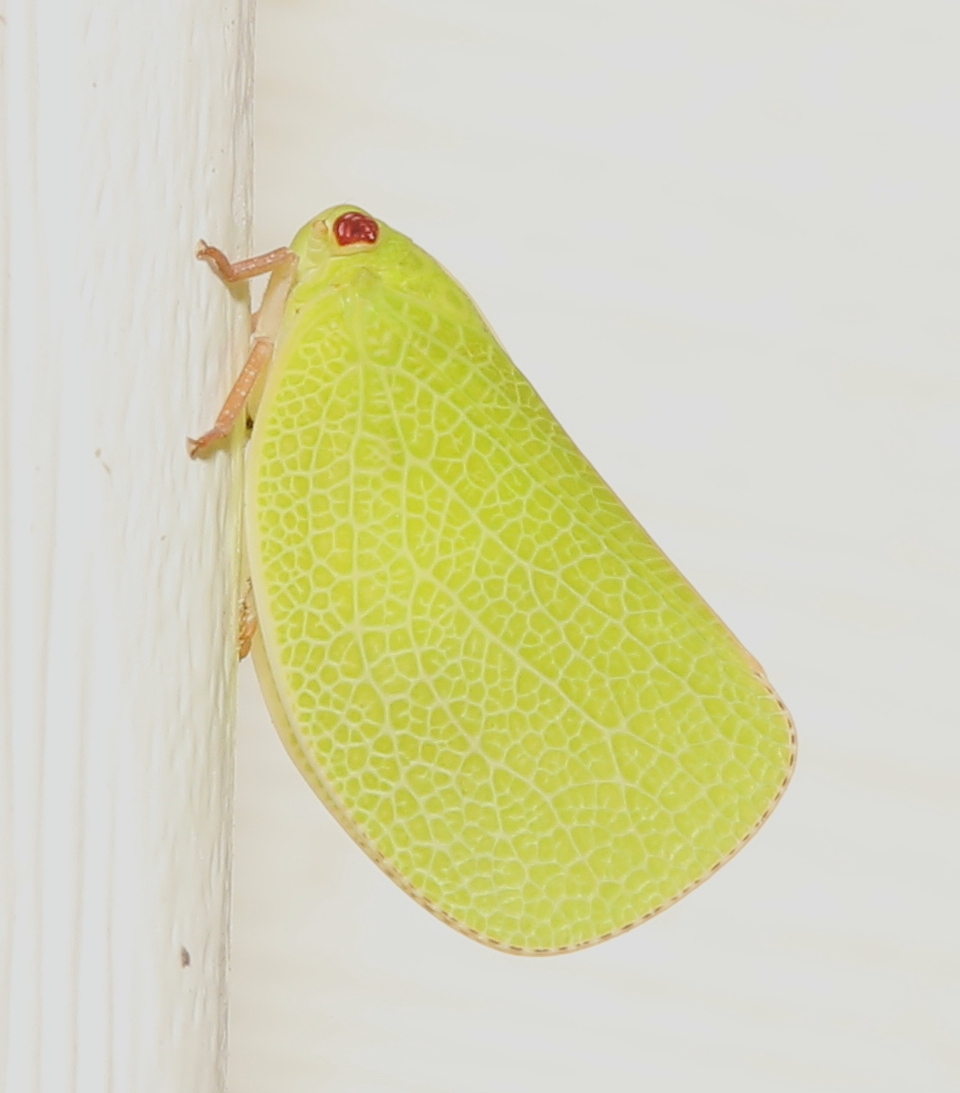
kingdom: Animalia
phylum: Arthropoda
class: Insecta
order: Hemiptera
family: Acanaloniidae
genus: Acanalonia
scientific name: Acanalonia servillei
